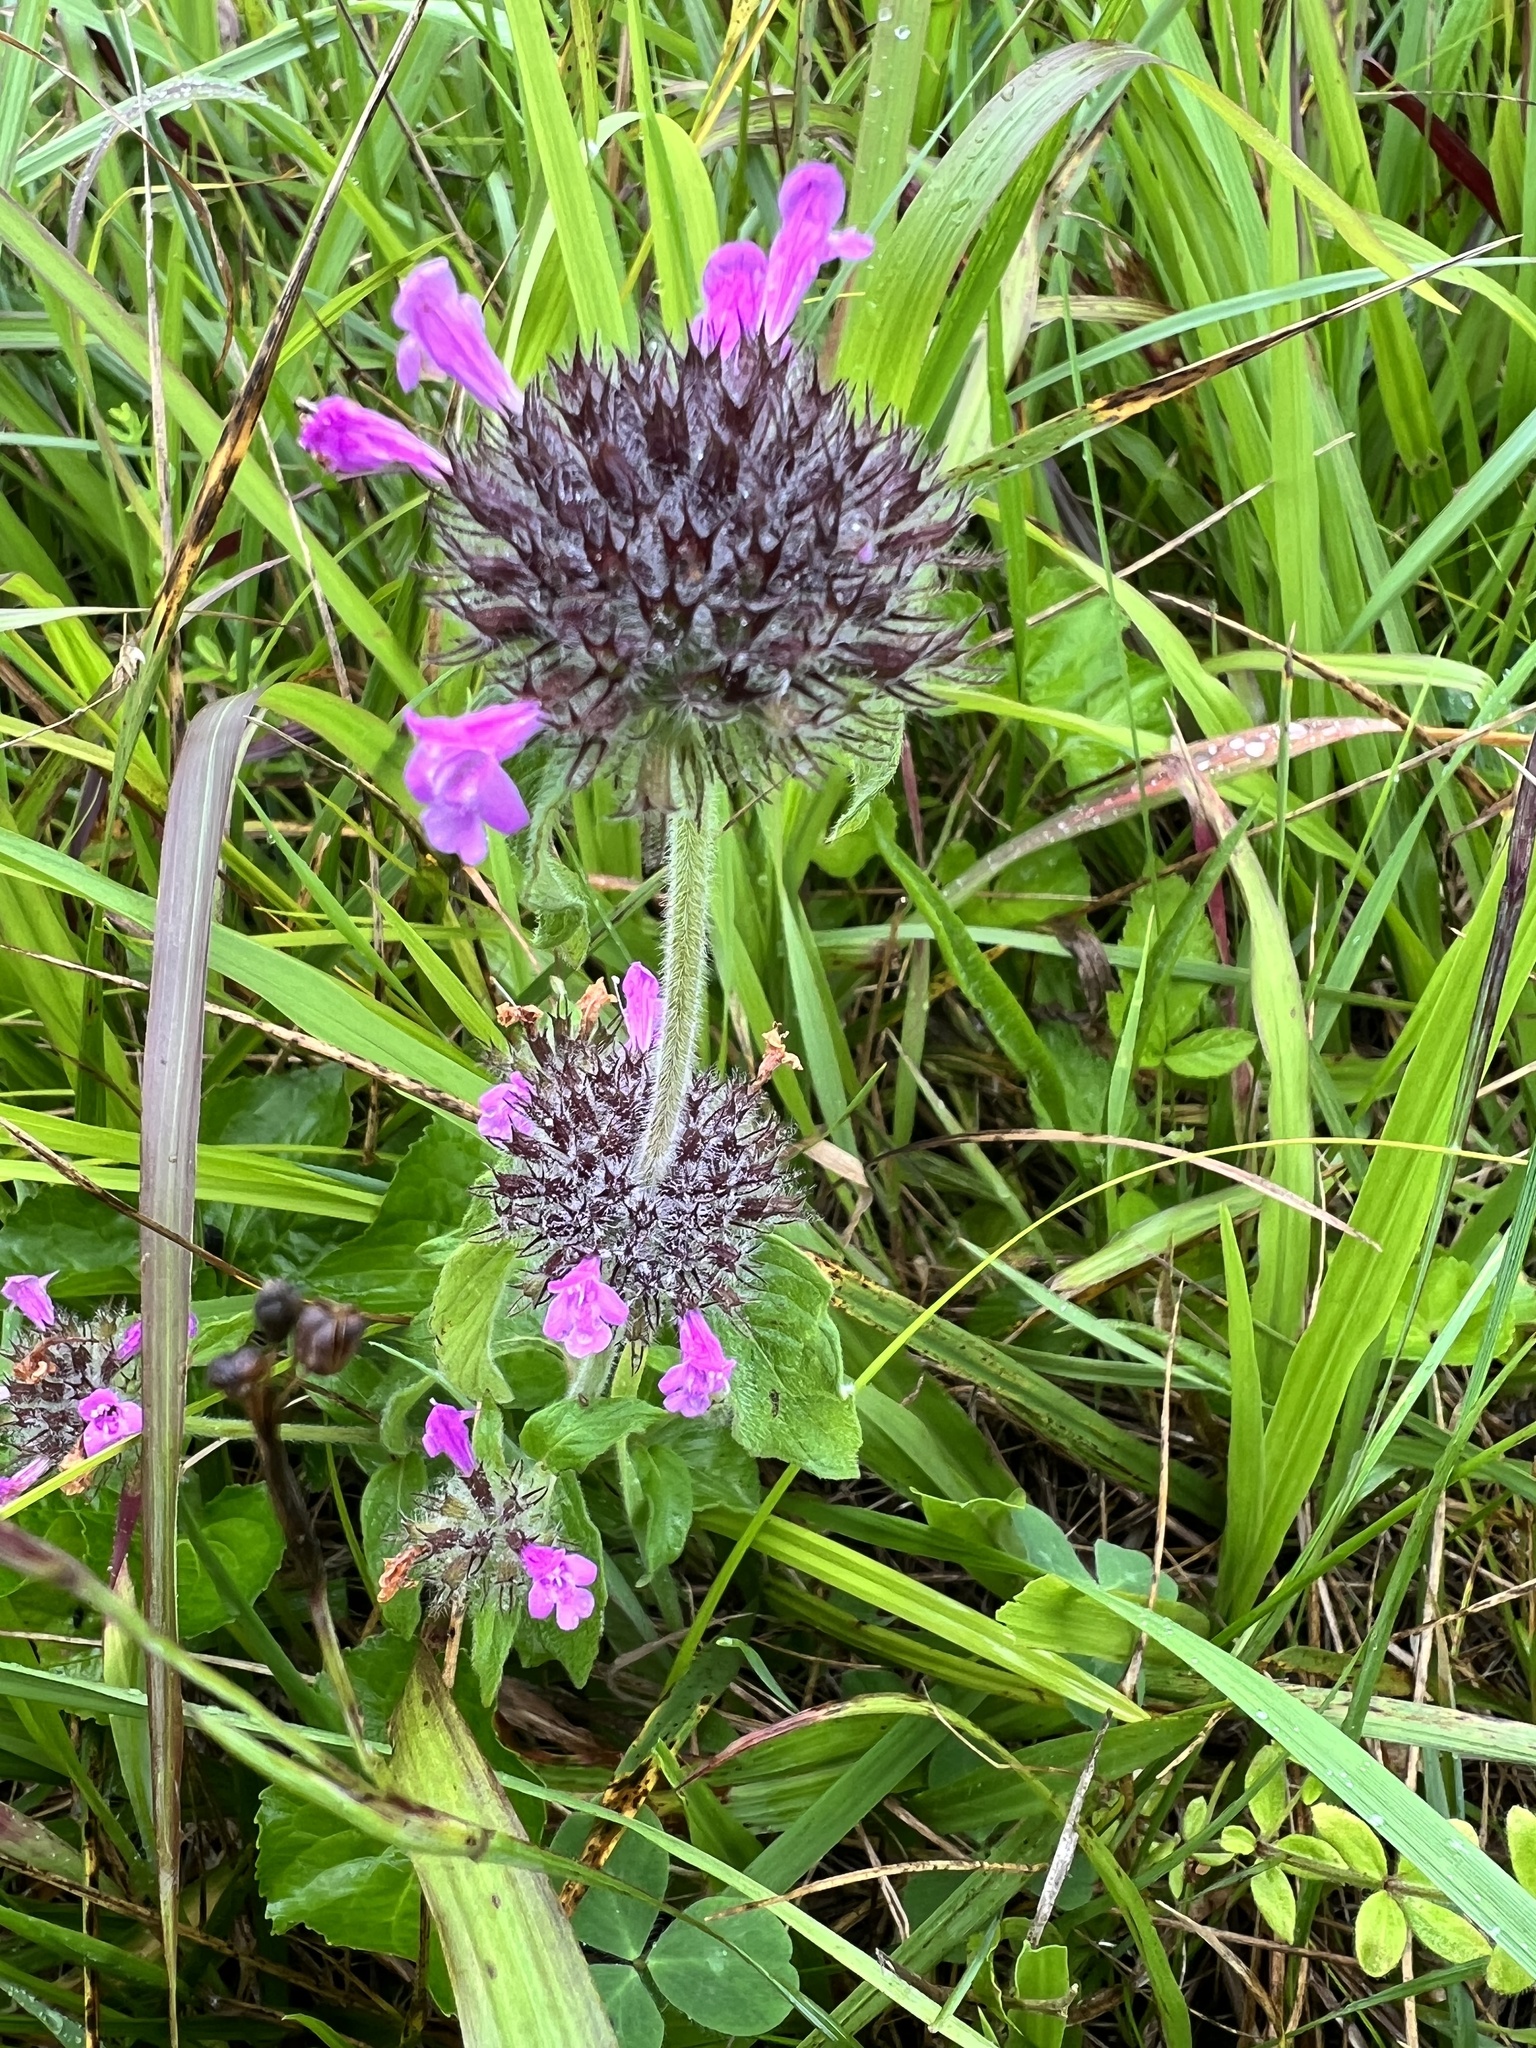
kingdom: Plantae
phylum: Tracheophyta
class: Magnoliopsida
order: Lamiales
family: Lamiaceae
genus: Clinopodium
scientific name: Clinopodium vulgare
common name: Wild basil
